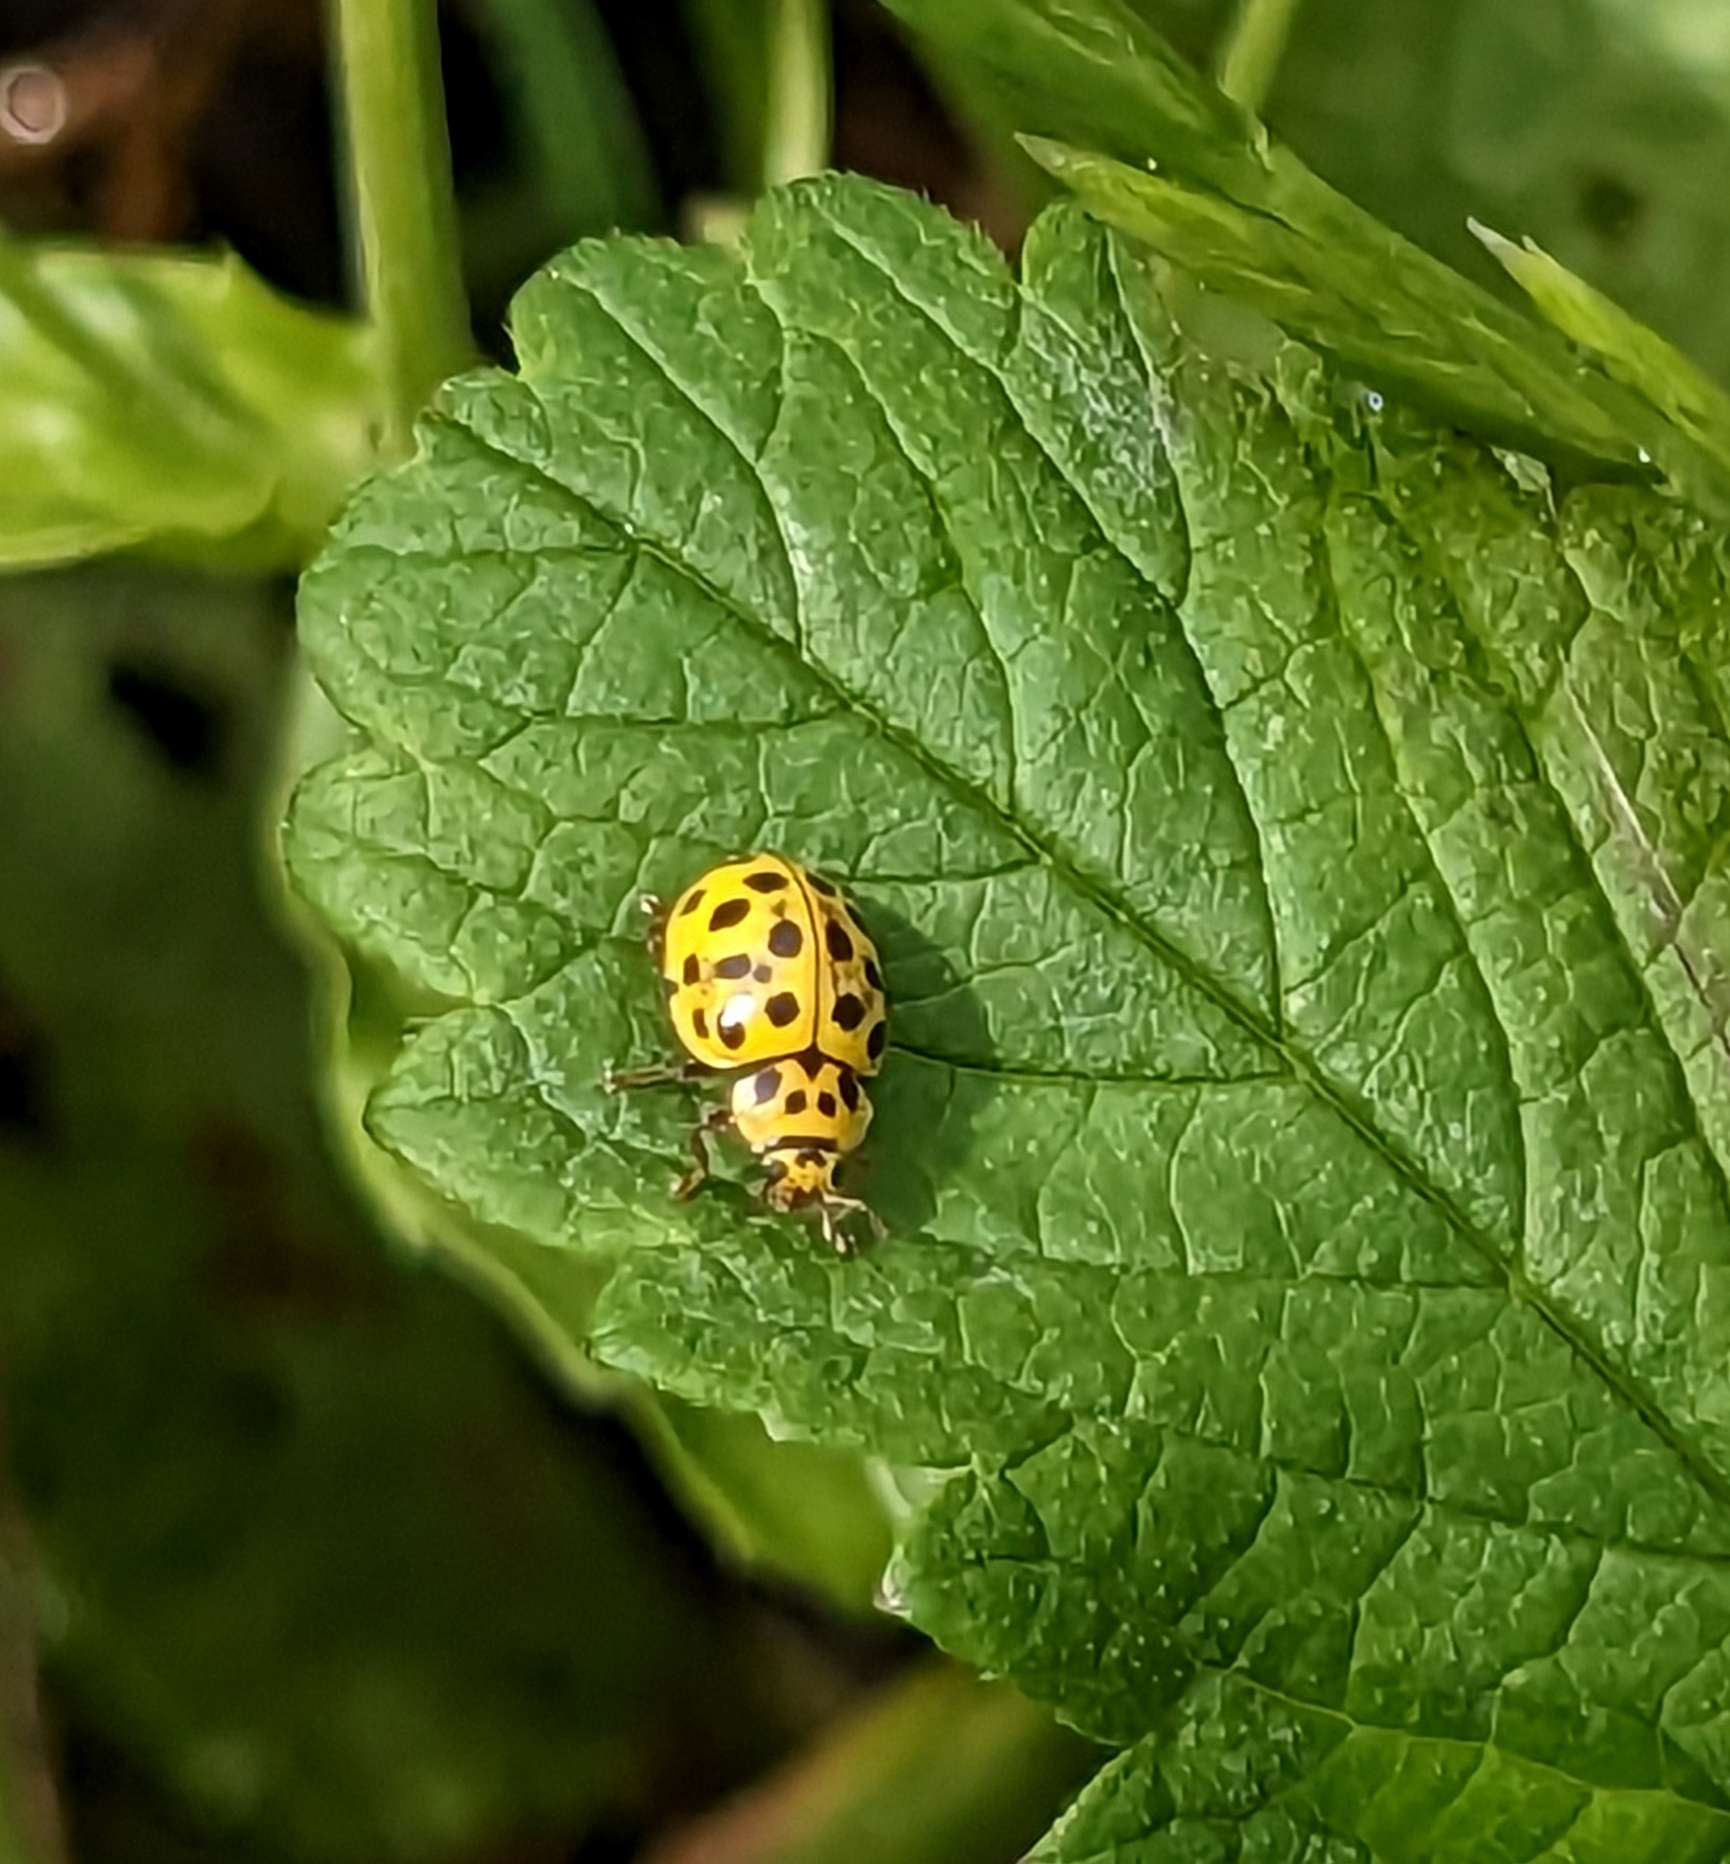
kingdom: Animalia
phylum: Arthropoda
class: Insecta
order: Coleoptera
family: Coccinellidae
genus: Psyllobora
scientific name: Psyllobora vigintiduopunctata
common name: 22-spot ladybird
